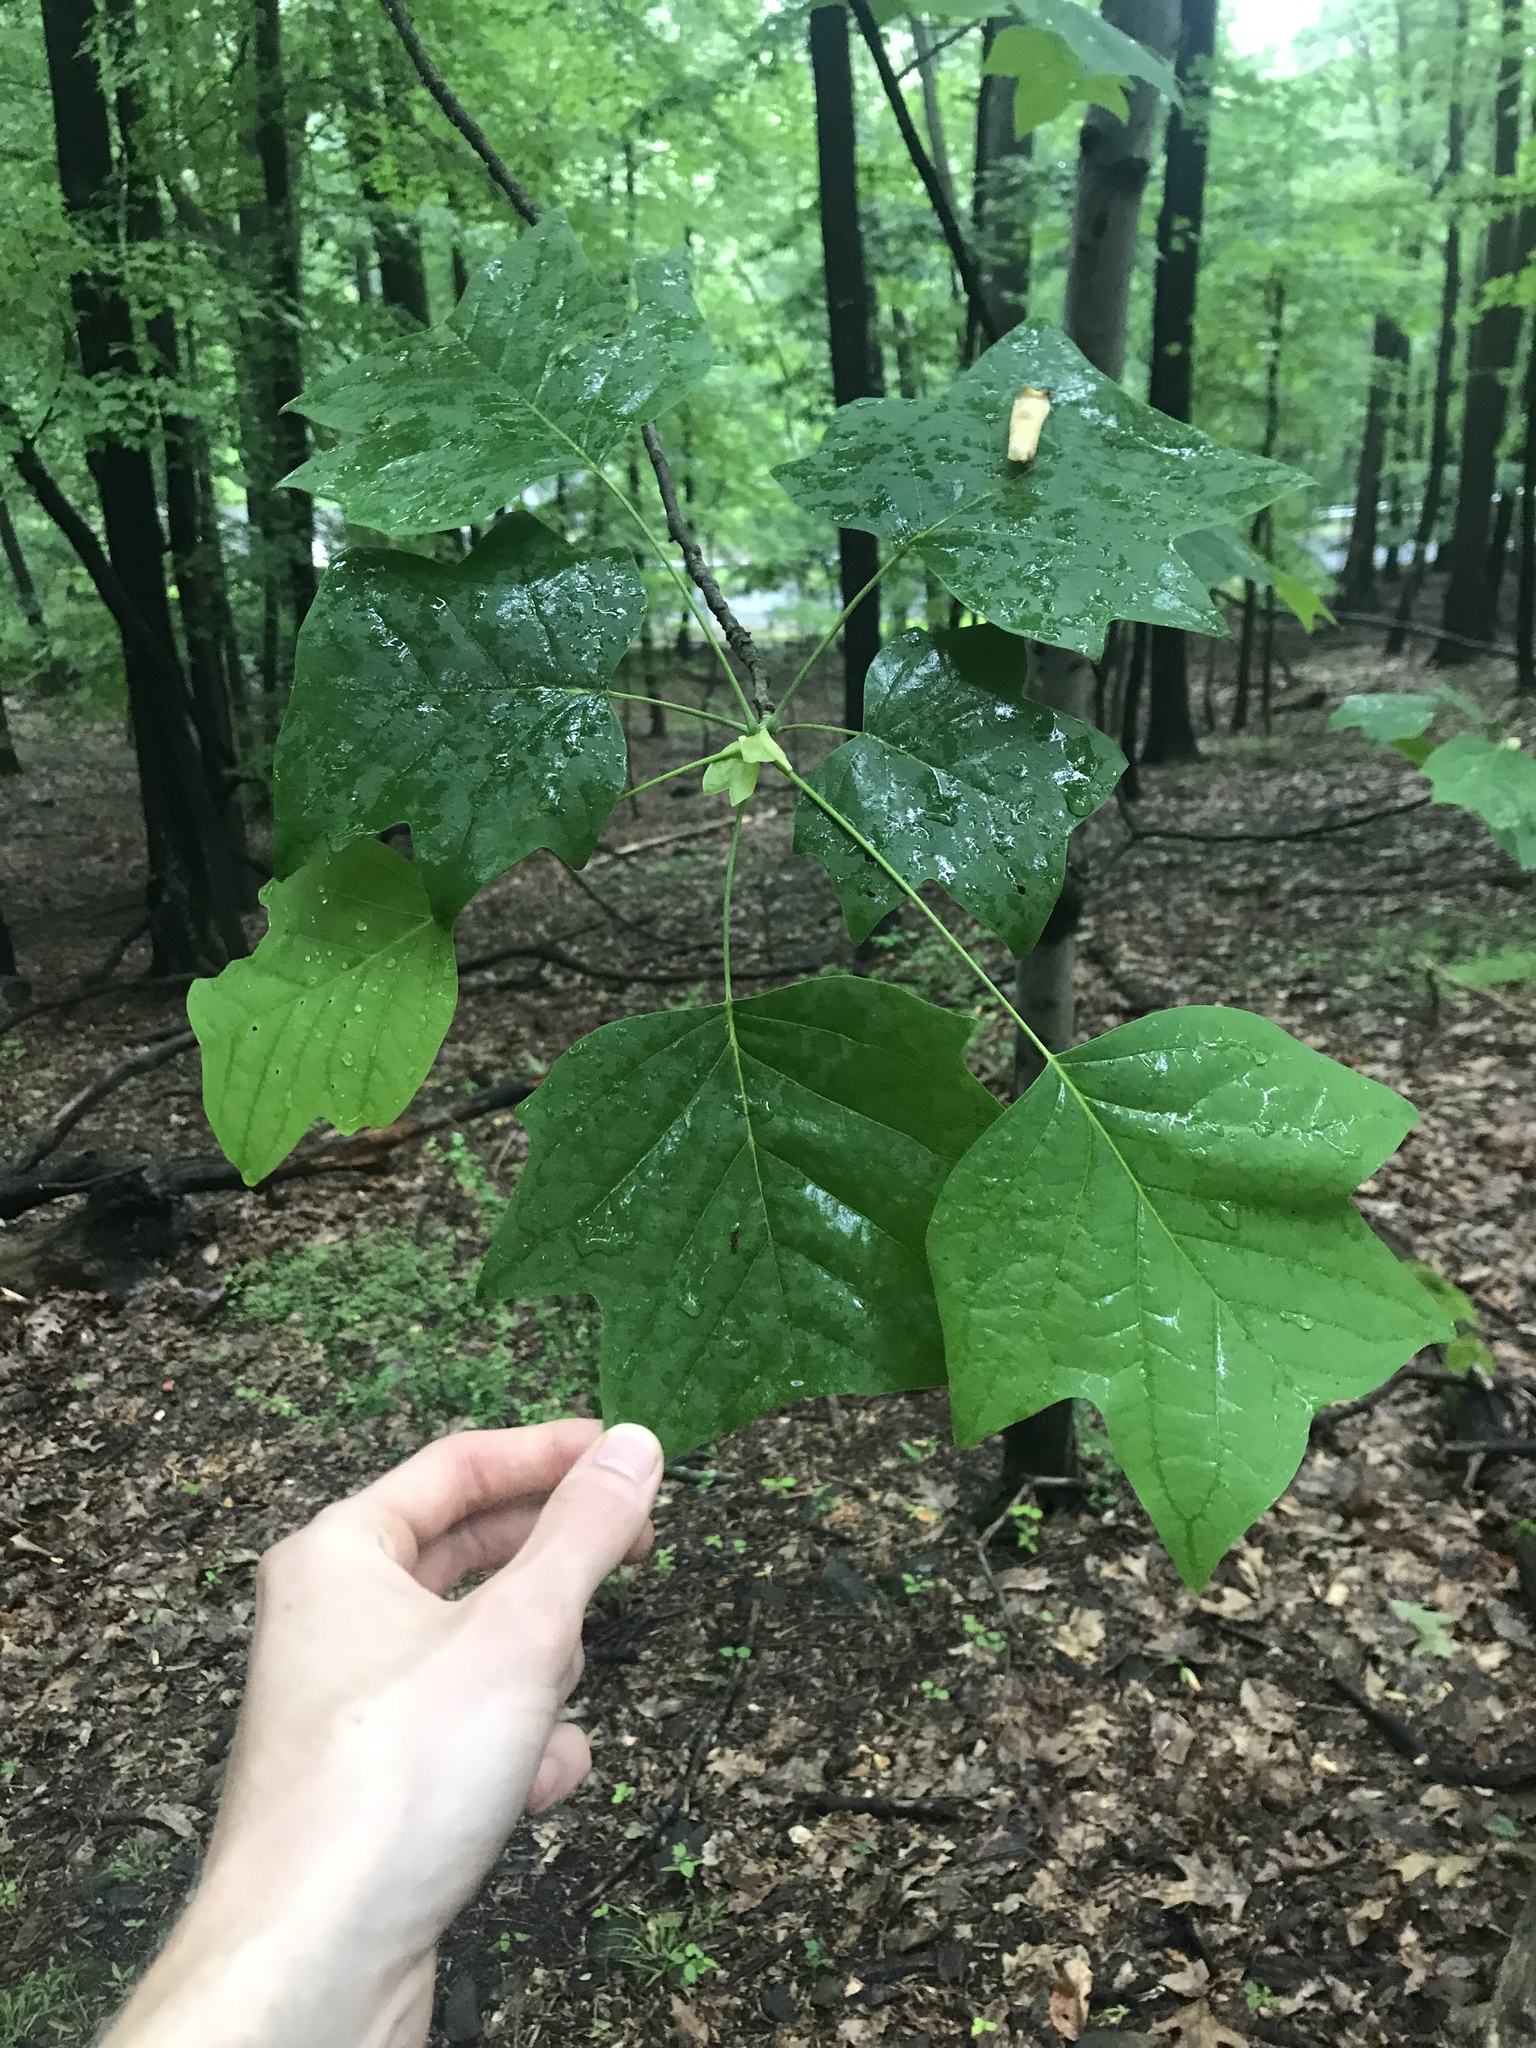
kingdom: Plantae
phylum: Tracheophyta
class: Magnoliopsida
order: Magnoliales
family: Magnoliaceae
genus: Liriodendron
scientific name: Liriodendron tulipifera
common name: Tulip tree
